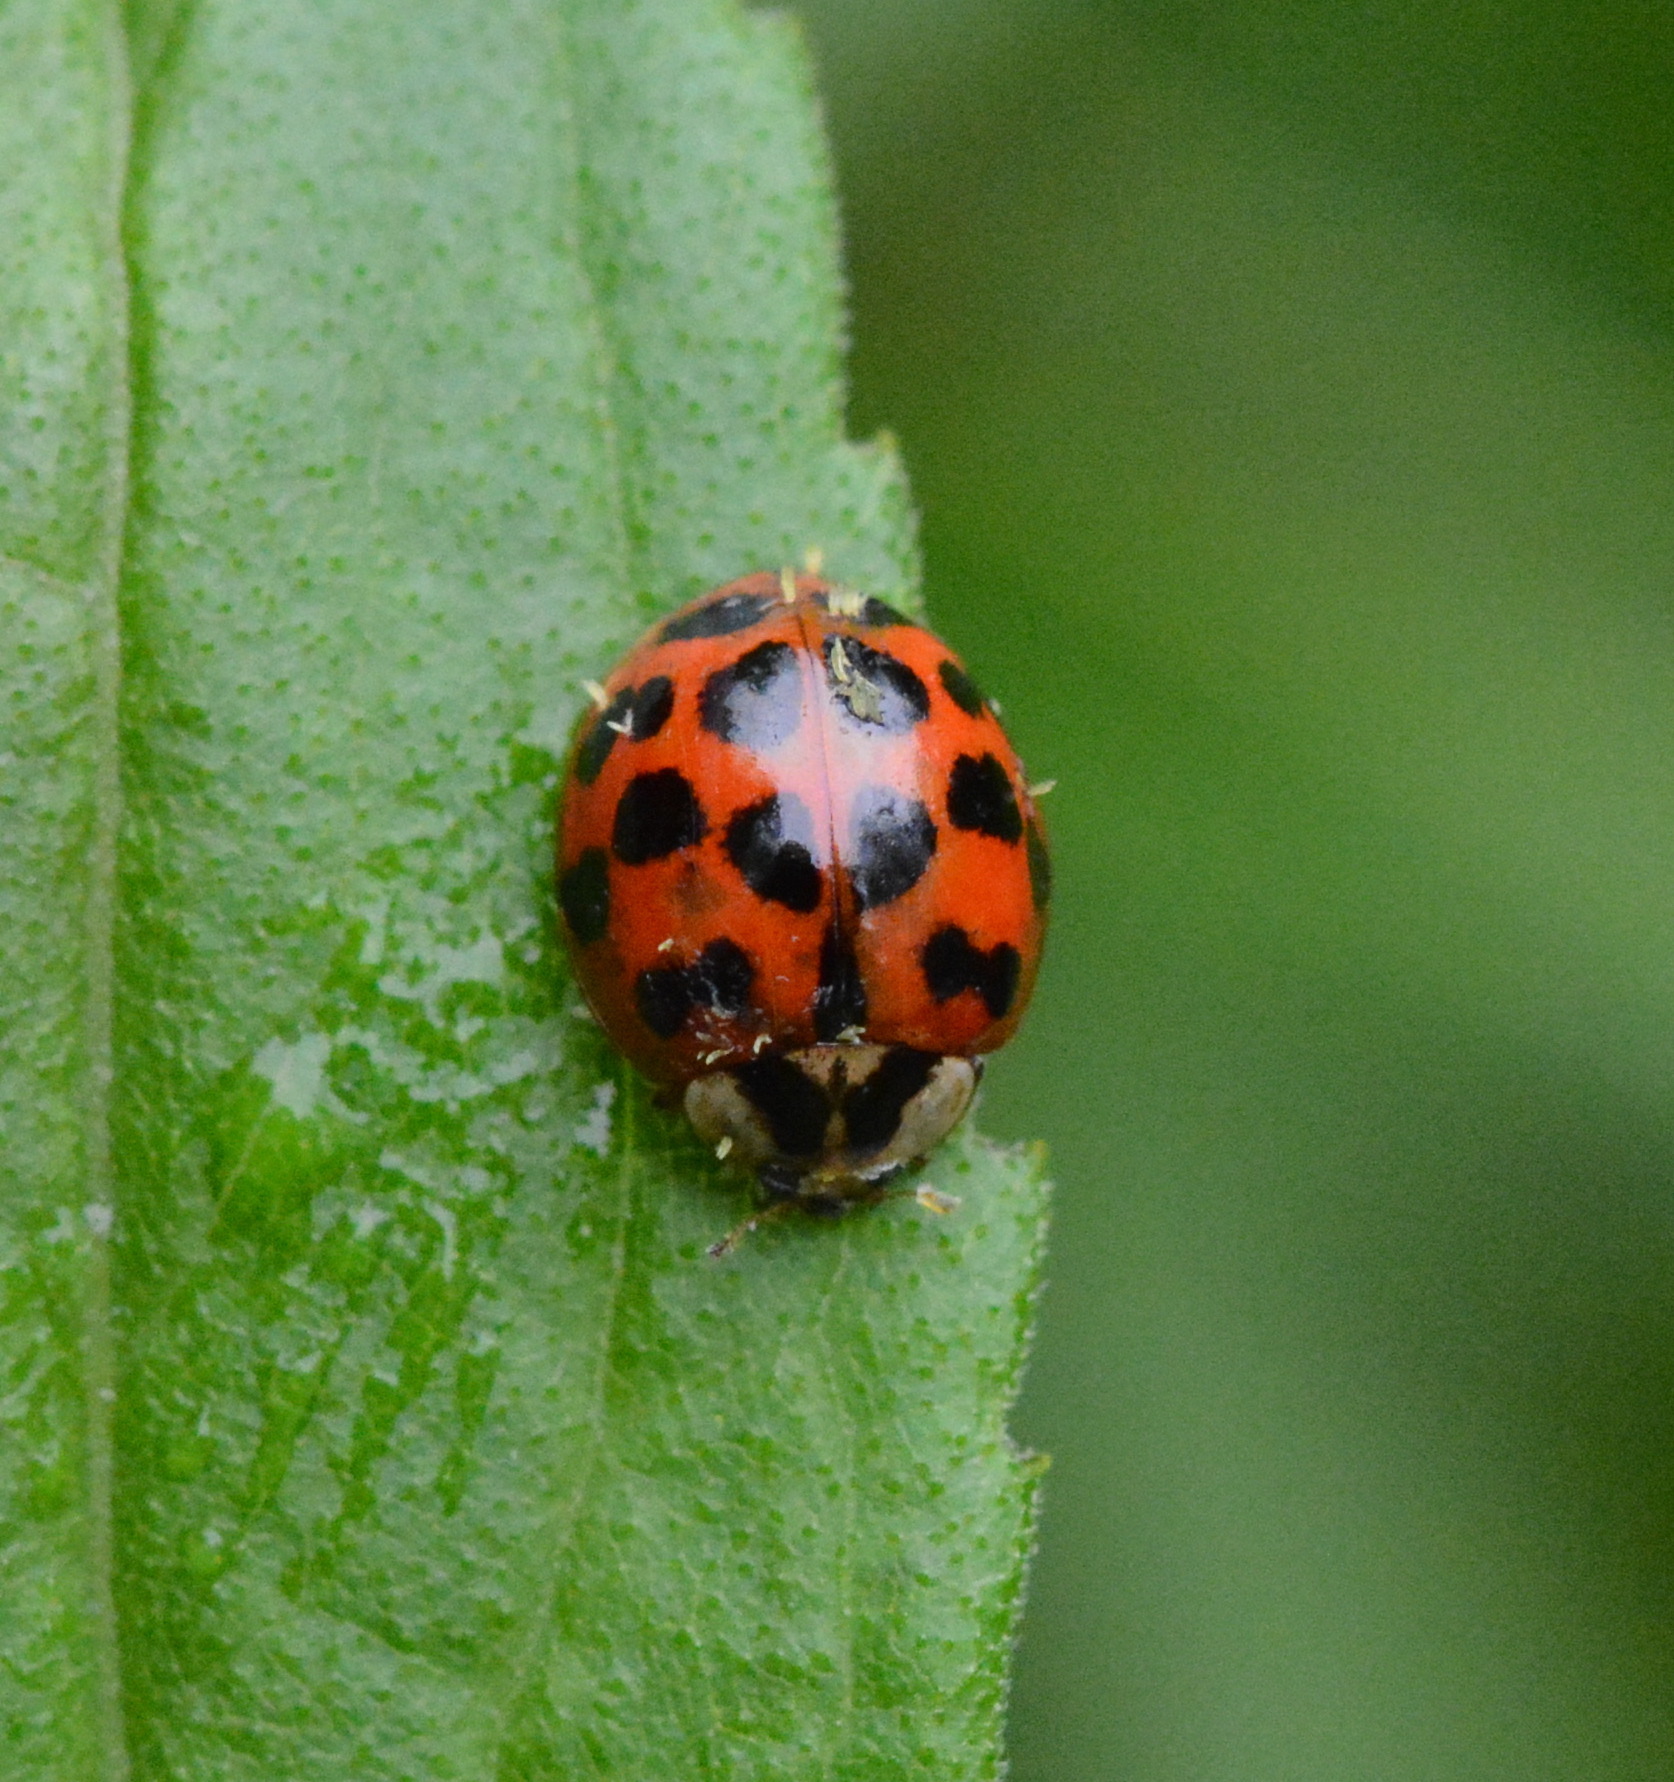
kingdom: Animalia
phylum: Arthropoda
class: Insecta
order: Coleoptera
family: Coccinellidae
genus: Harmonia
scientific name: Harmonia axyridis
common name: Harlequin ladybird
